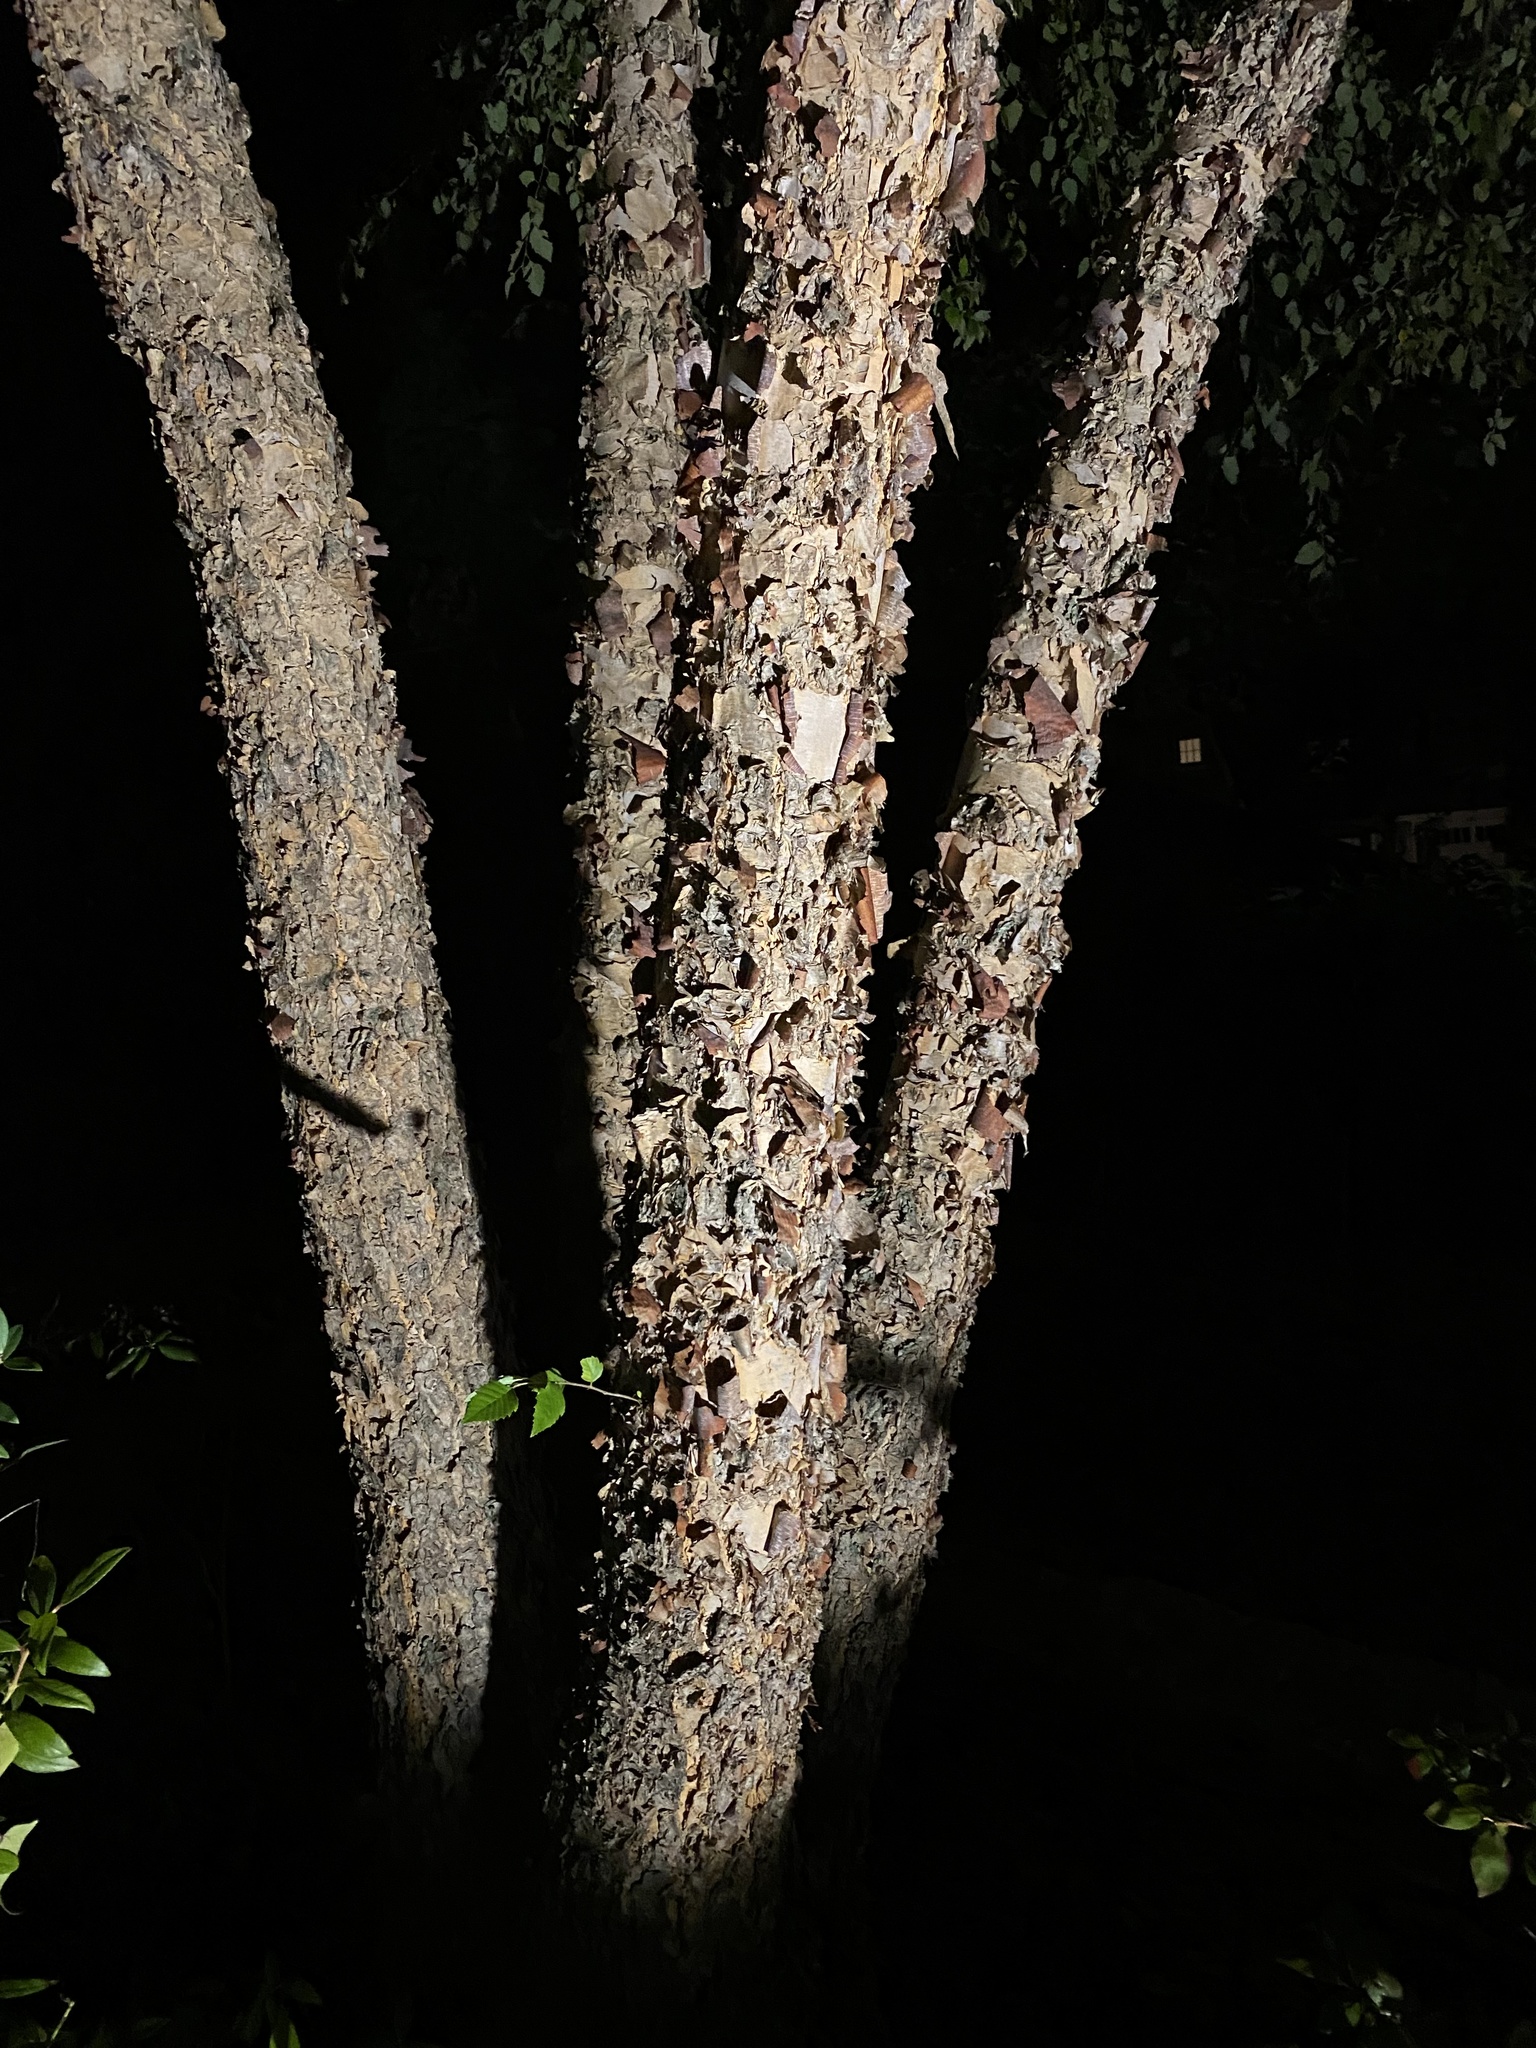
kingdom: Plantae
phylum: Tracheophyta
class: Magnoliopsida
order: Fagales
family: Betulaceae
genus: Betula
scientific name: Betula nigra
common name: Black birch
